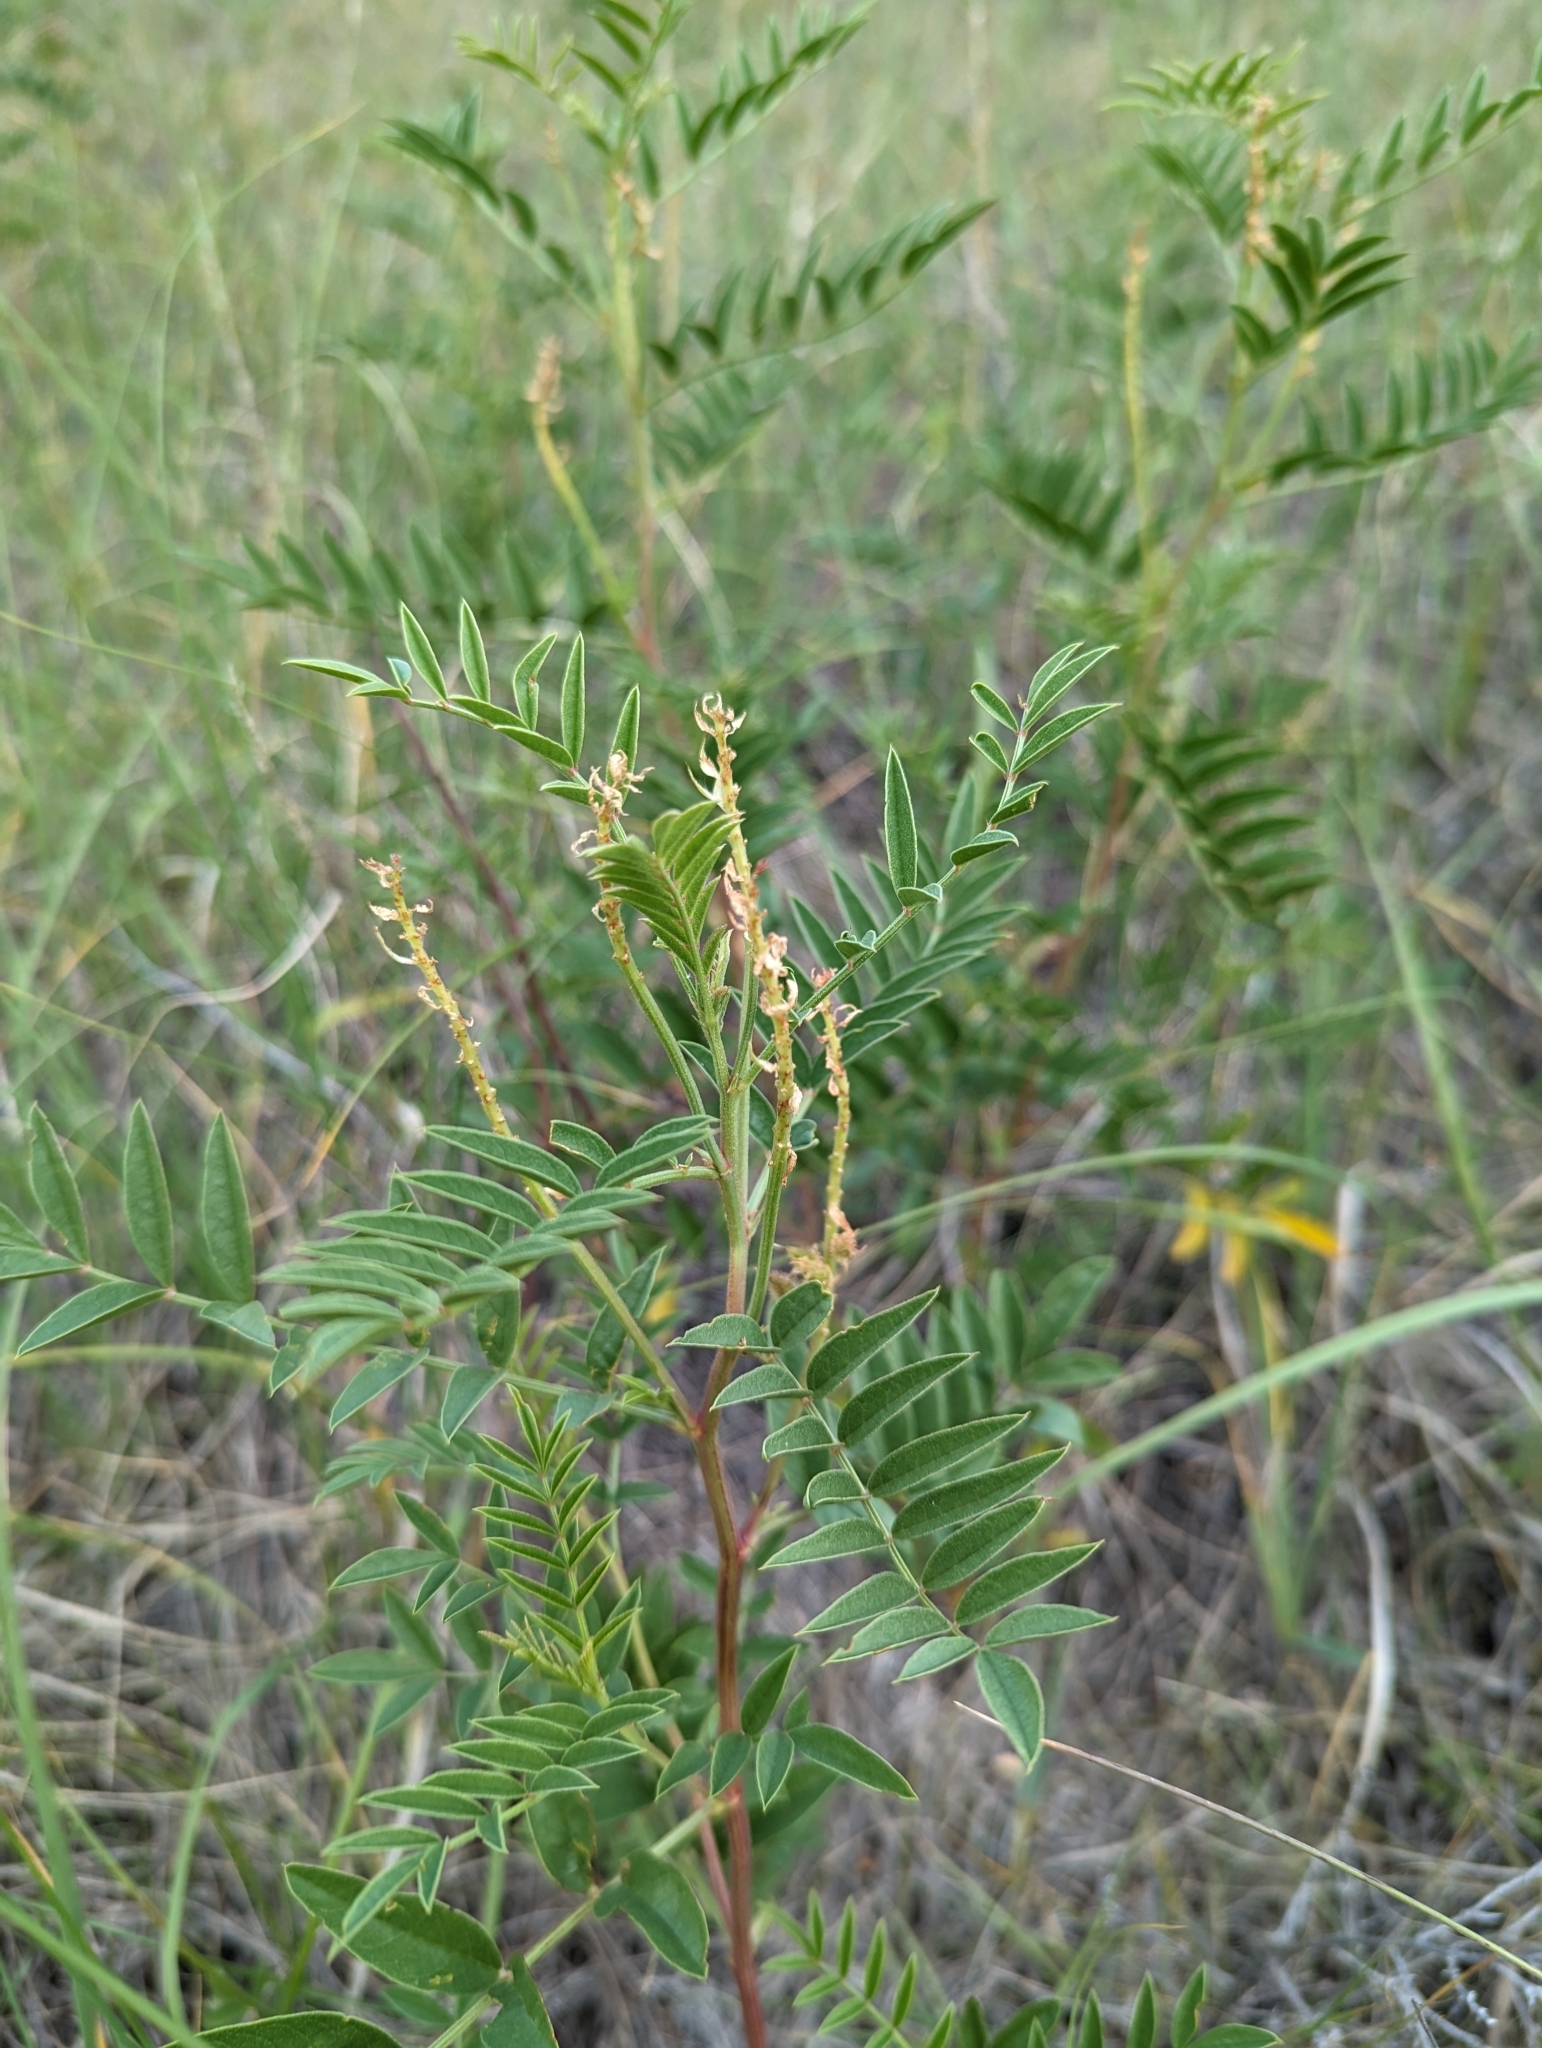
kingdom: Plantae
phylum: Tracheophyta
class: Magnoliopsida
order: Fabales
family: Fabaceae
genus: Glycyrrhiza
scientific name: Glycyrrhiza lepidota
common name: American liquorice
